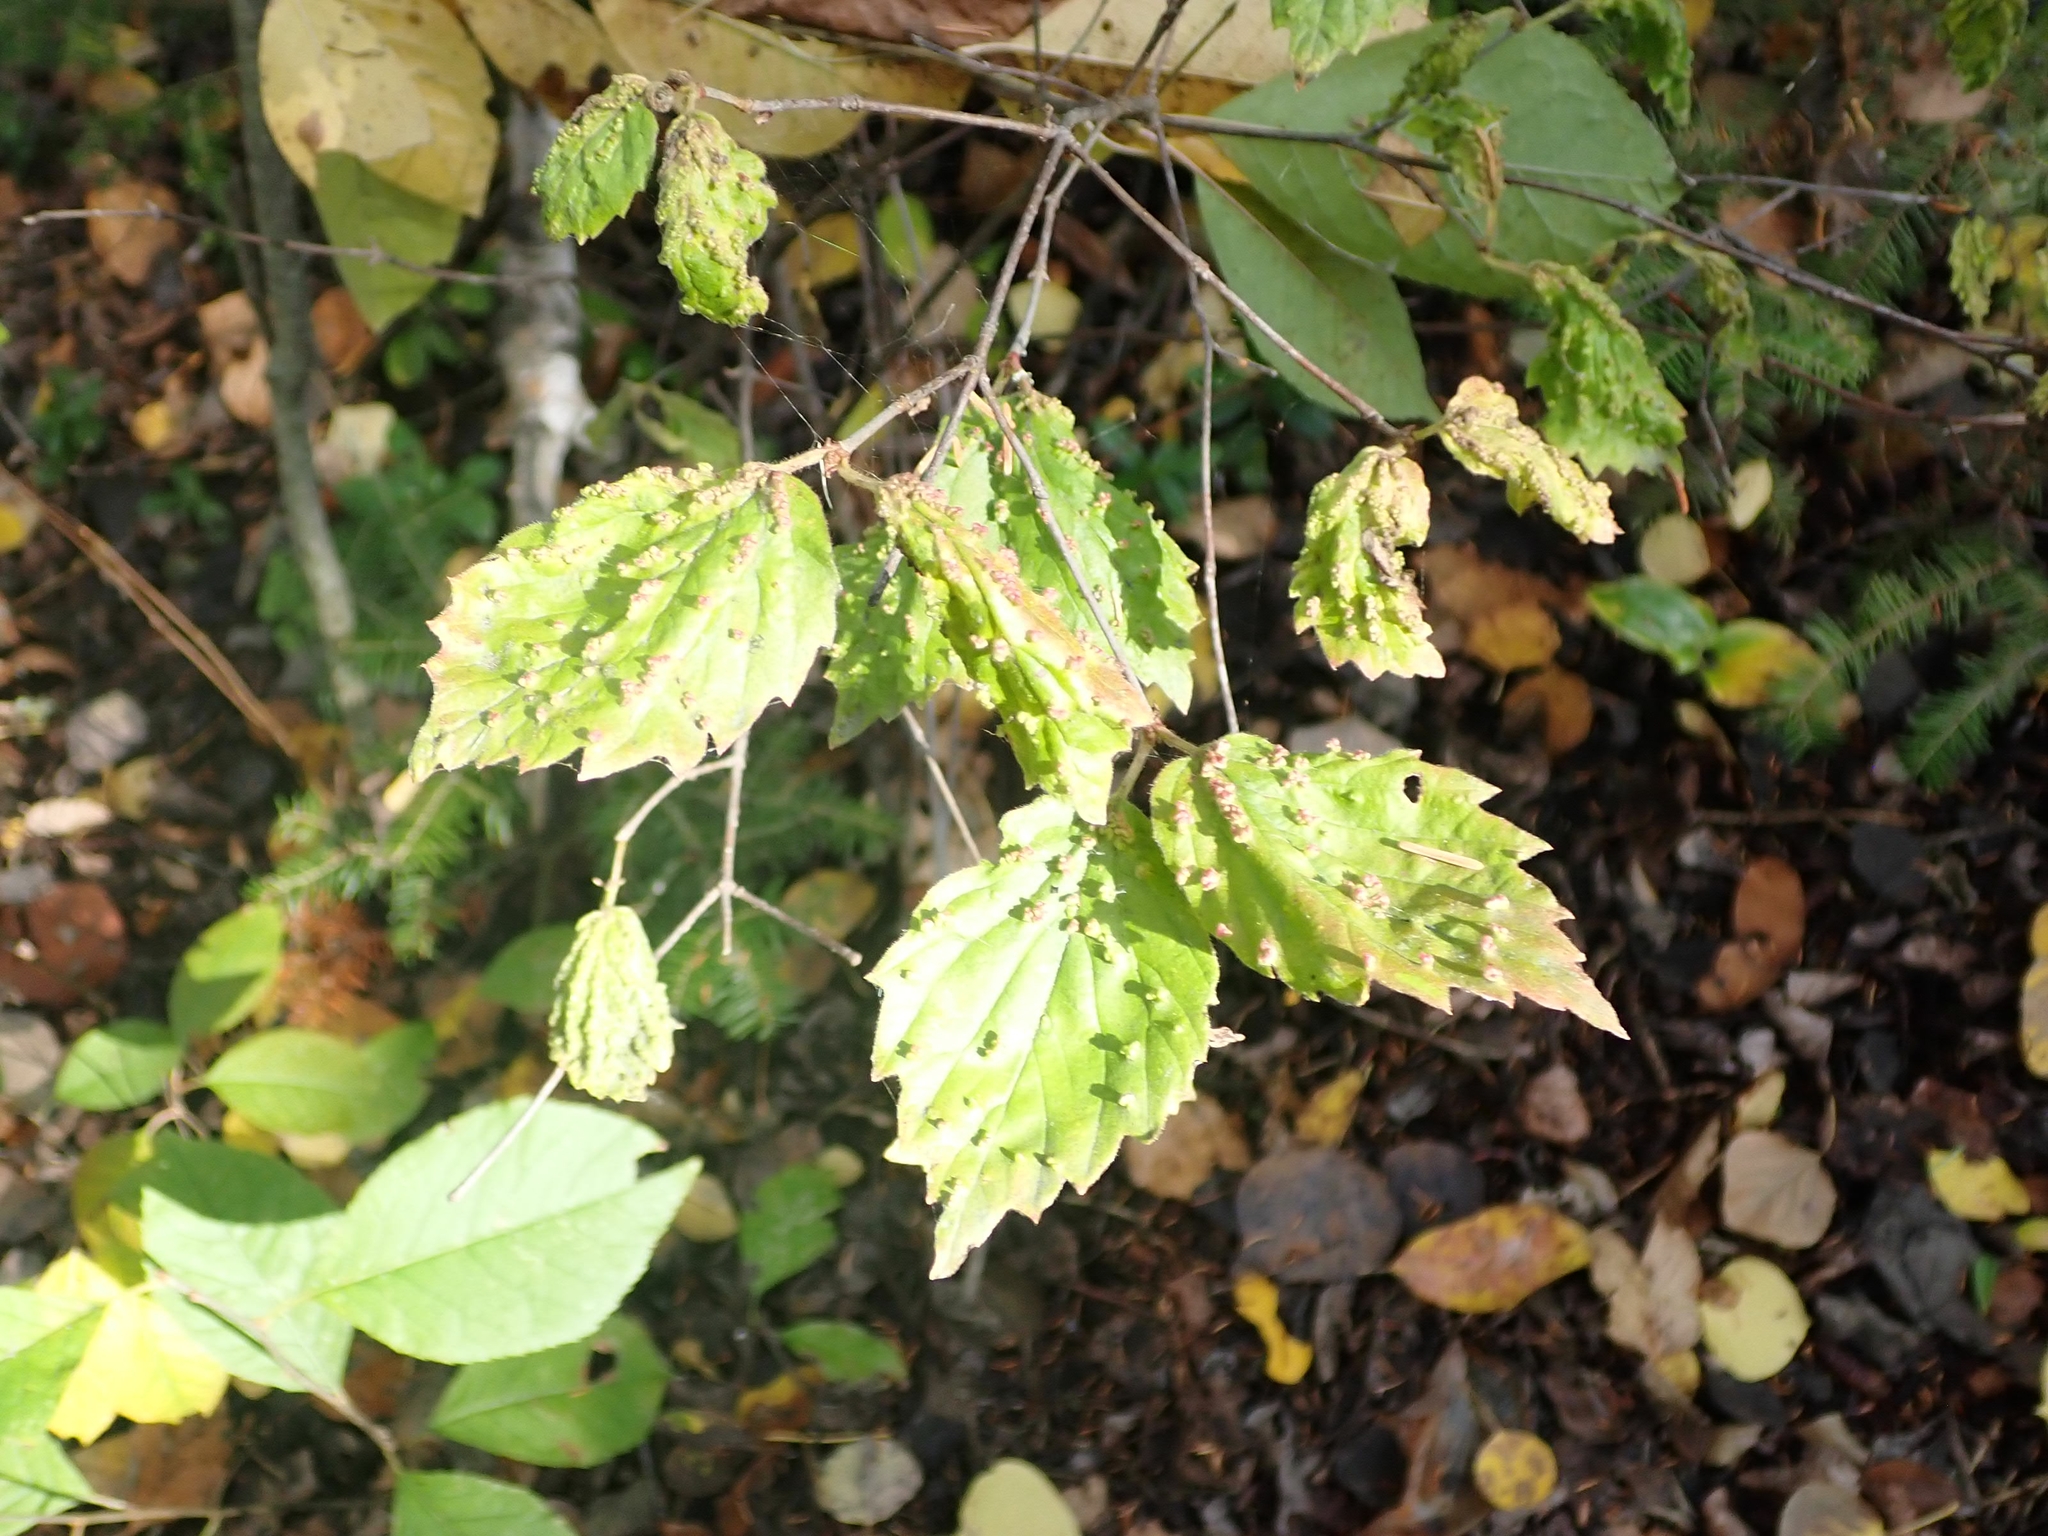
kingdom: Plantae
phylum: Tracheophyta
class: Magnoliopsida
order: Dipsacales
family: Viburnaceae
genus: Viburnum
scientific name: Viburnum rafinesqueanum
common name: Downy arrow-wood
